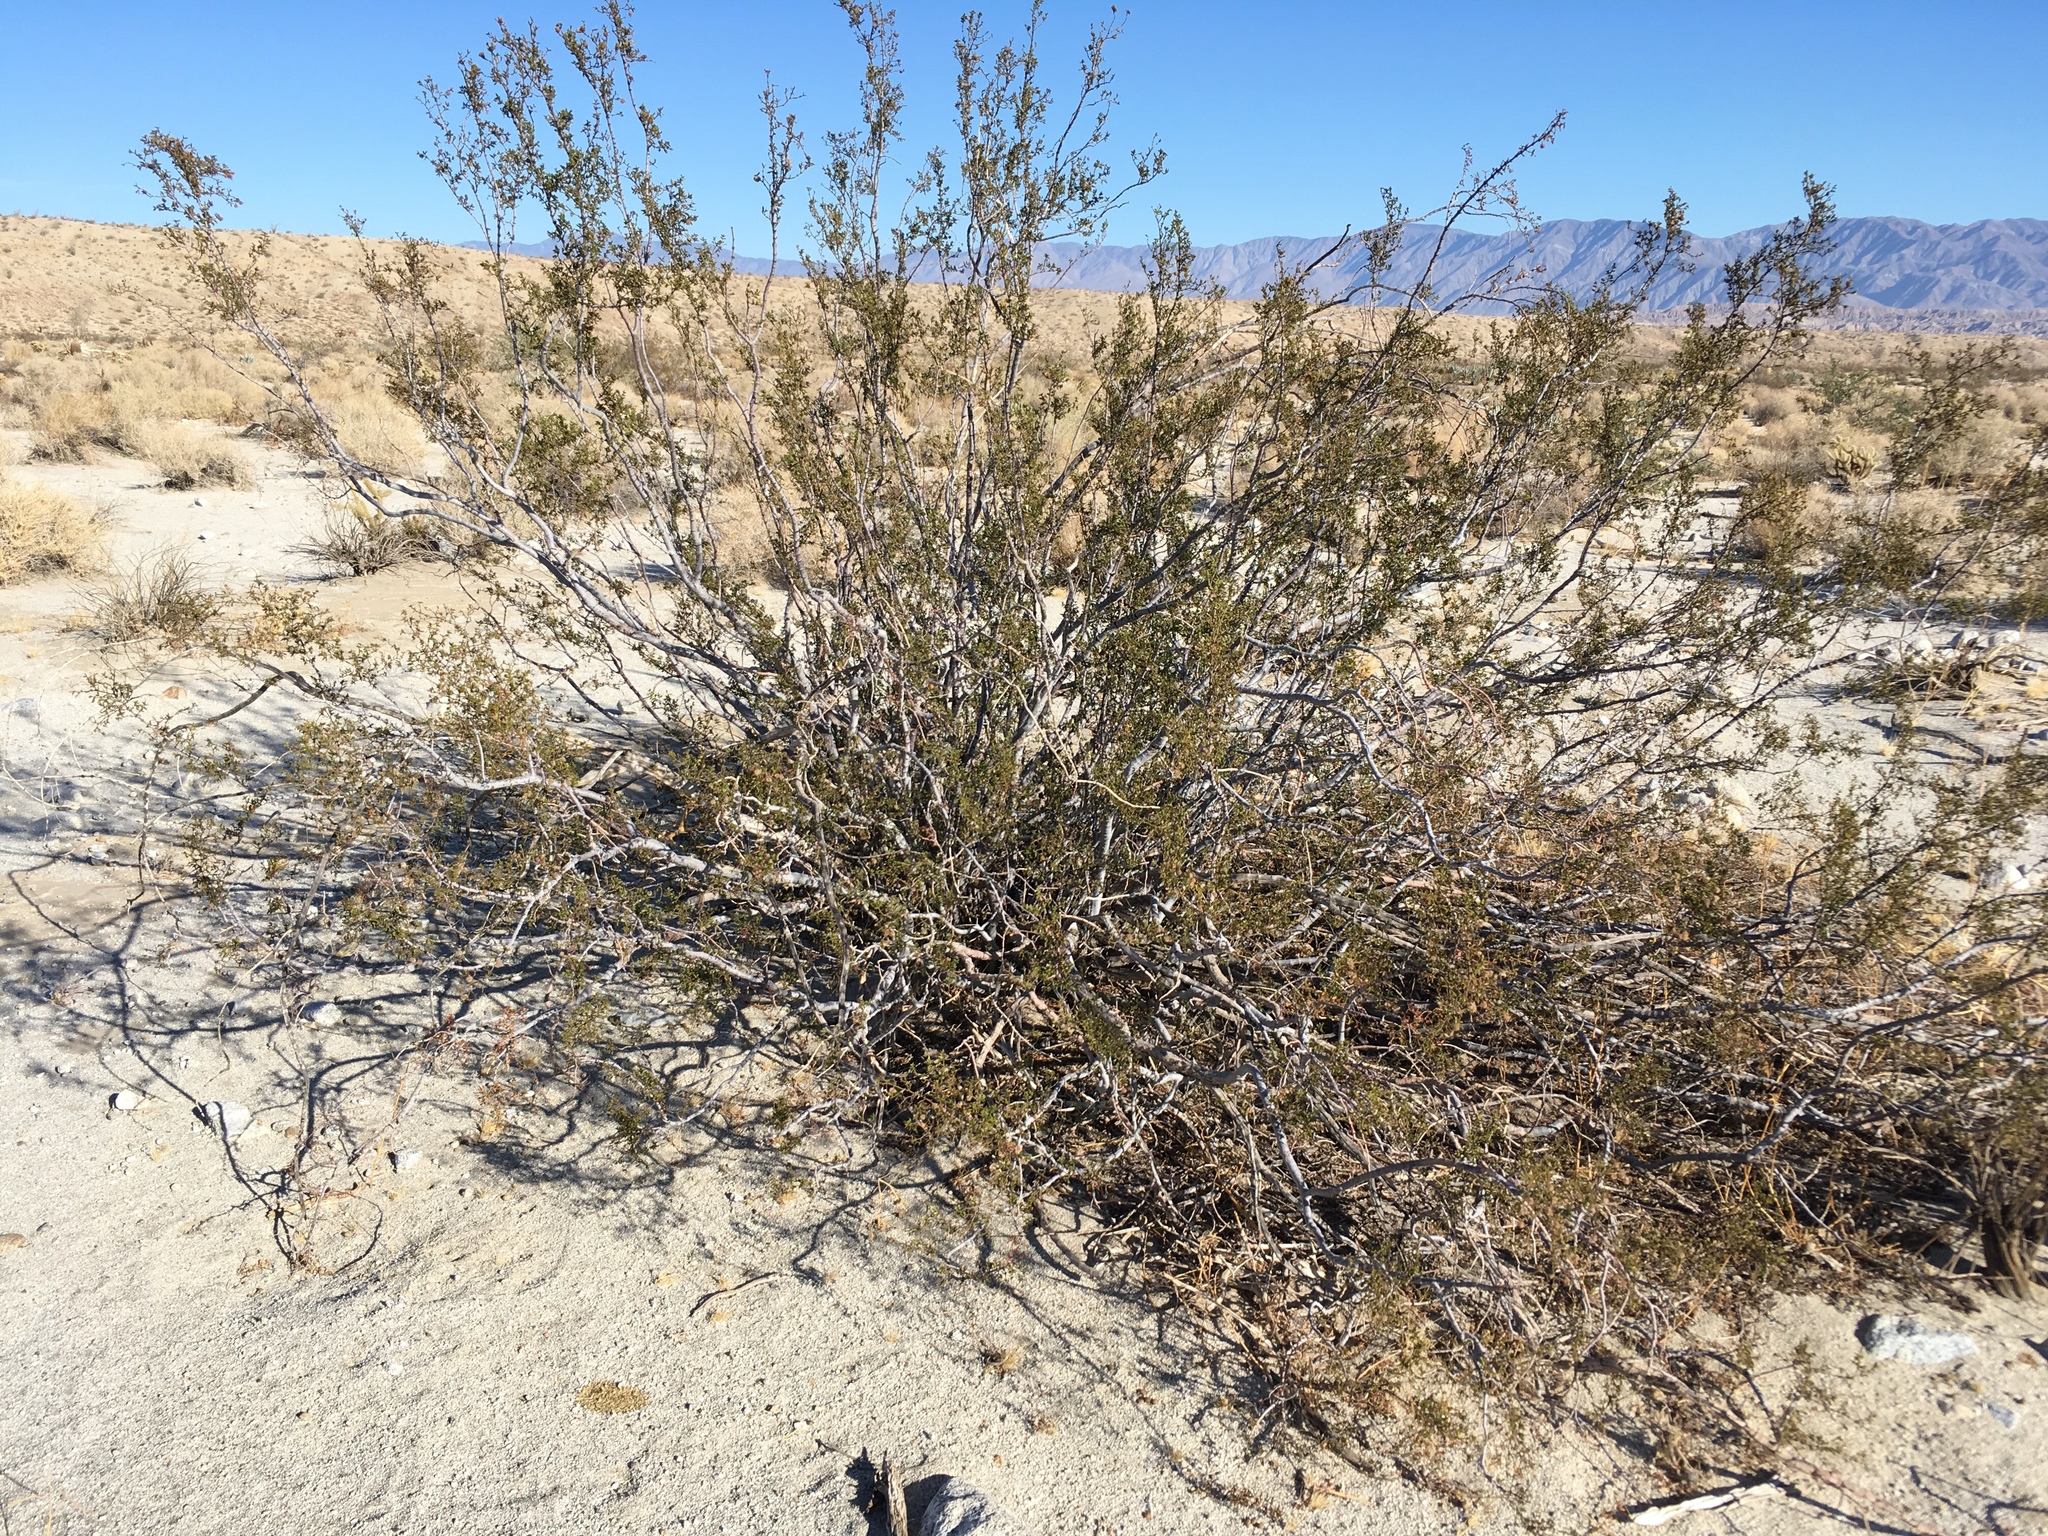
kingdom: Plantae
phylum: Tracheophyta
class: Magnoliopsida
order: Zygophyllales
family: Zygophyllaceae
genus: Larrea
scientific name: Larrea tridentata
